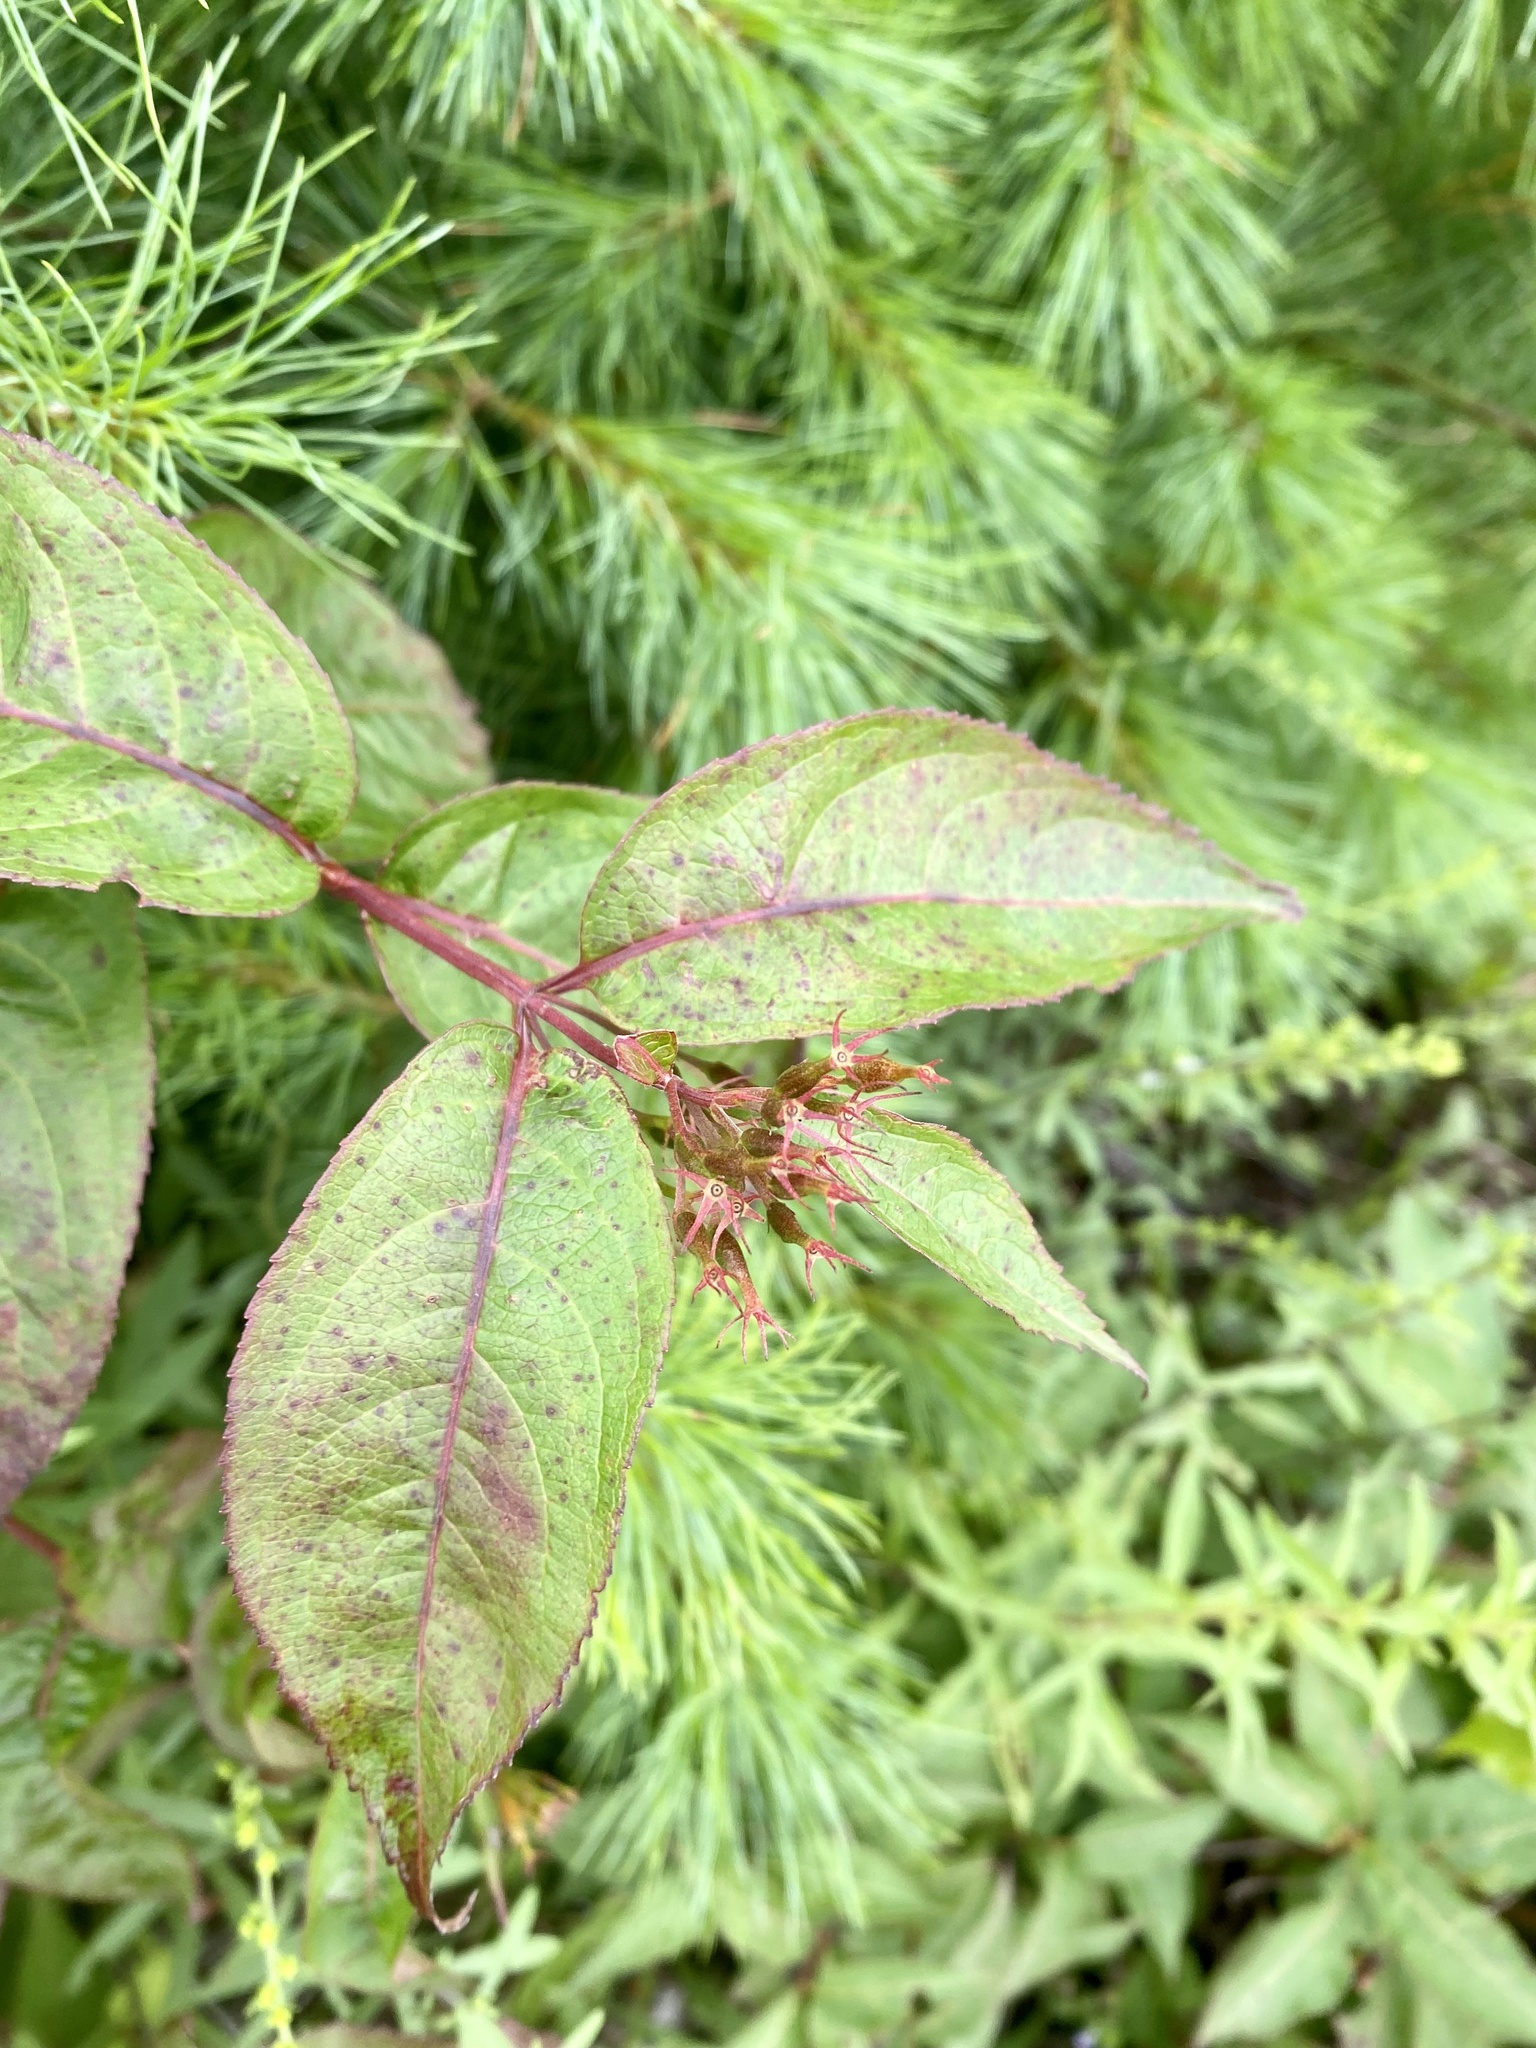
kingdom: Plantae
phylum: Tracheophyta
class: Magnoliopsida
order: Dipsacales
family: Caprifoliaceae
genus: Diervilla
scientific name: Diervilla lonicera
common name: Bush-honeysuckle
